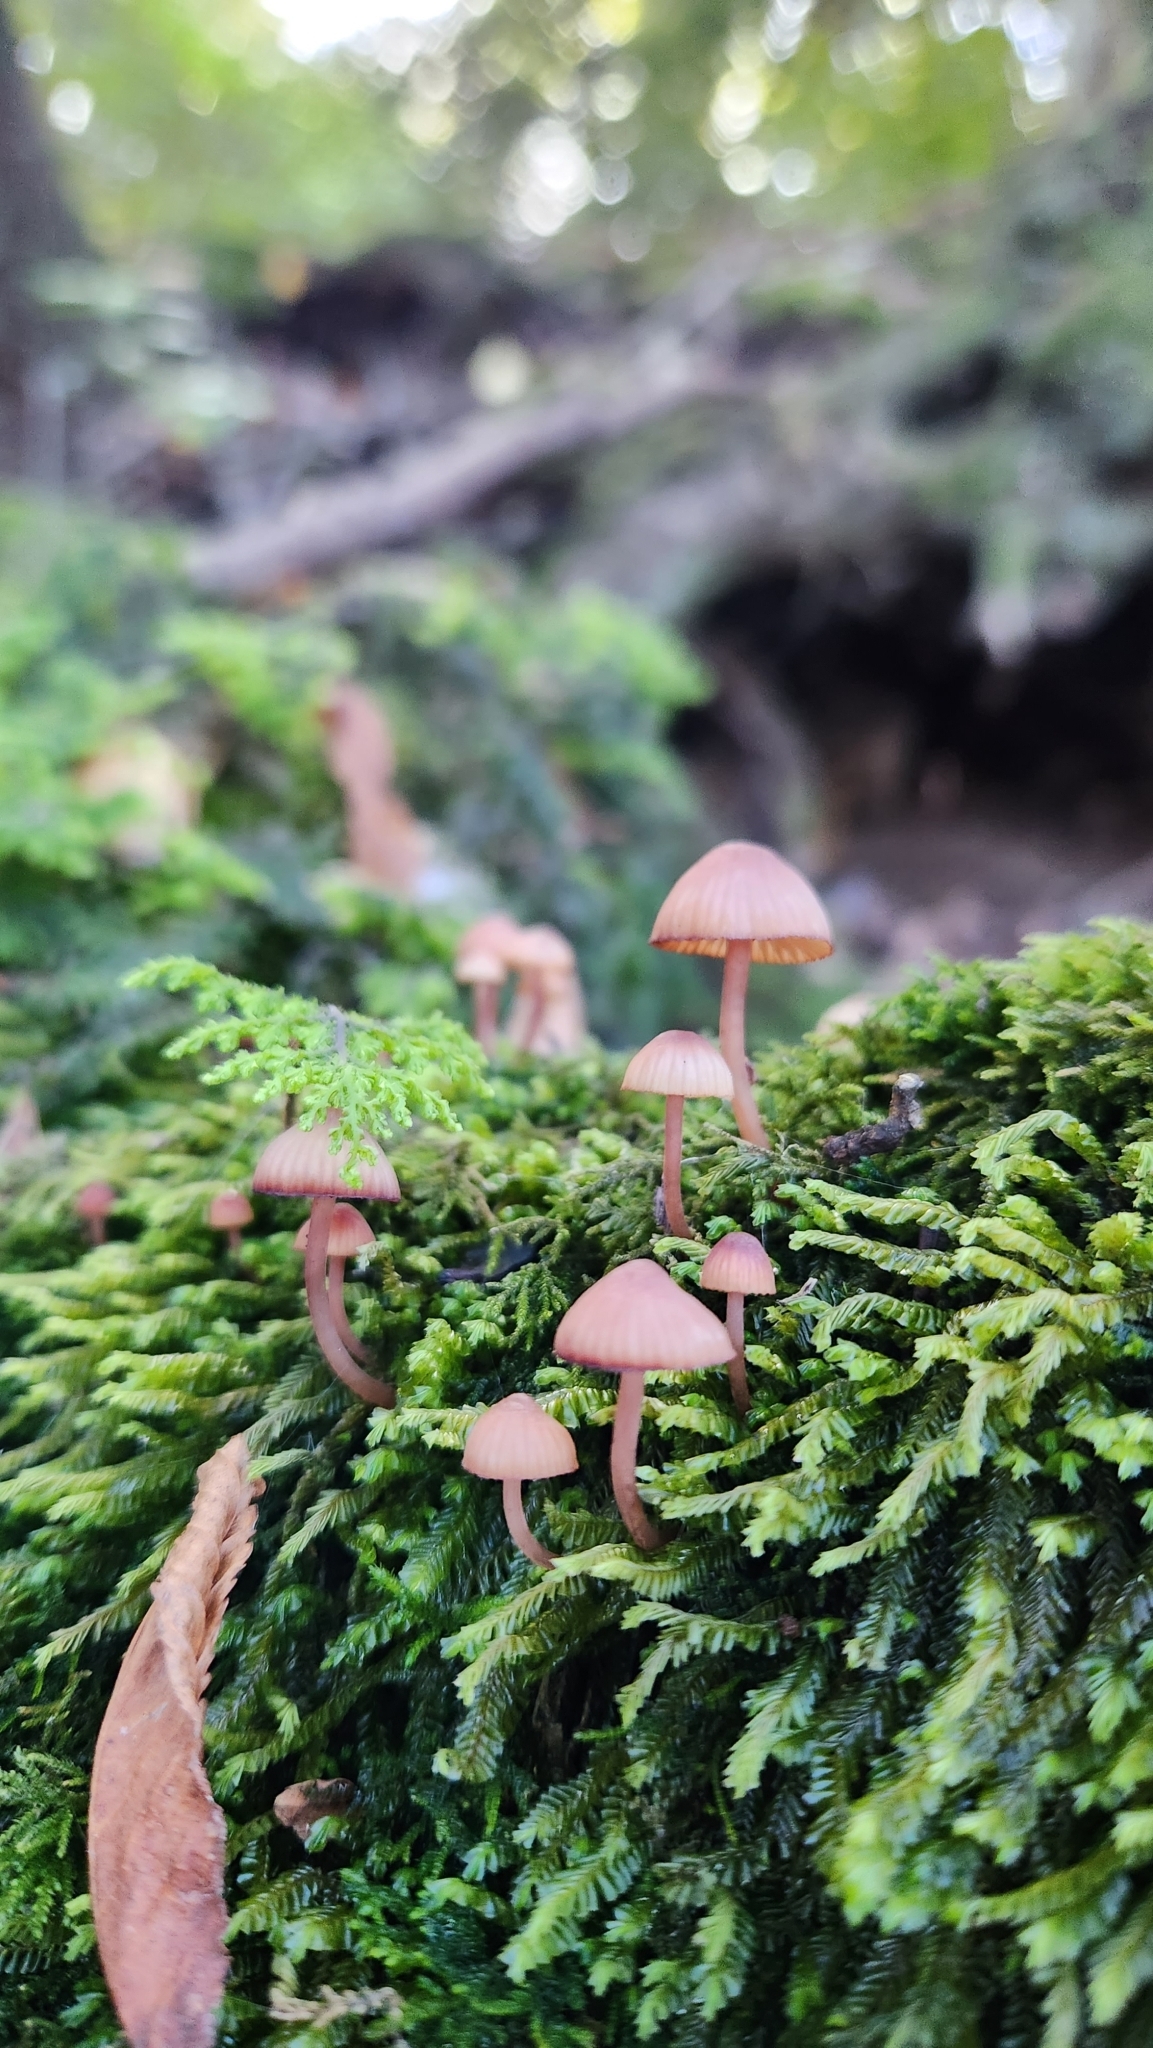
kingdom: Fungi
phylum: Basidiomycota
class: Agaricomycetes
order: Agaricales
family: Mycenaceae
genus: Mycena
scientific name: Mycena haematopus
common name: Burgundydrop bonnet
